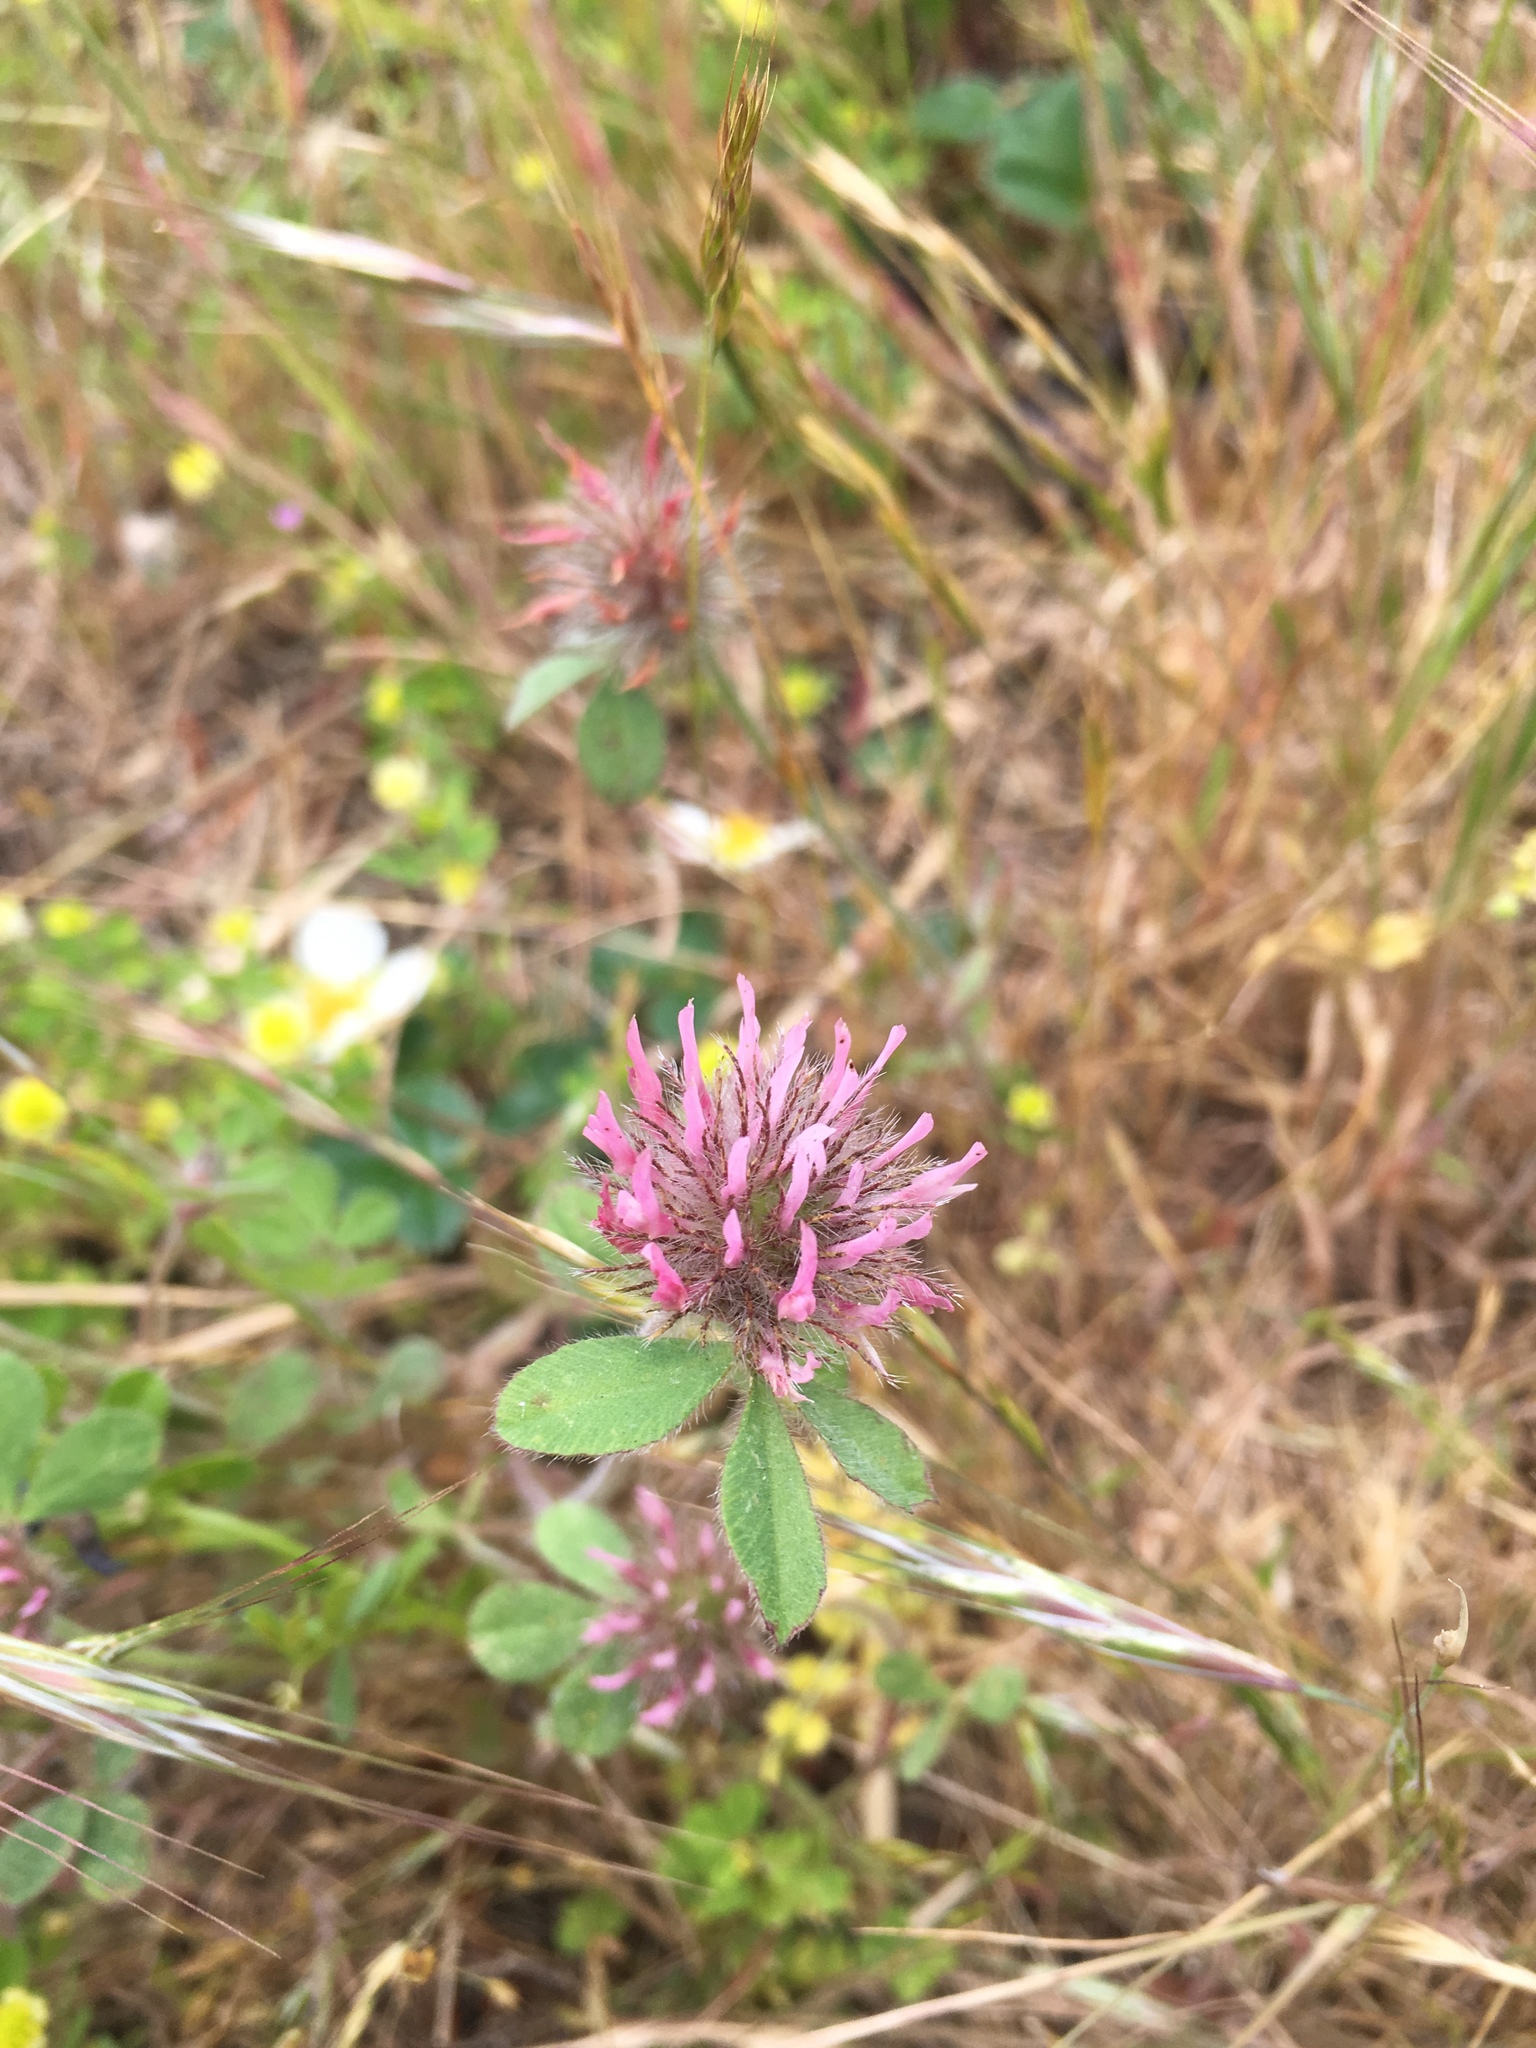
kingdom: Plantae
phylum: Tracheophyta
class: Magnoliopsida
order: Fabales
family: Fabaceae
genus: Trifolium
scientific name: Trifolium hirtum
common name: Rose clover
